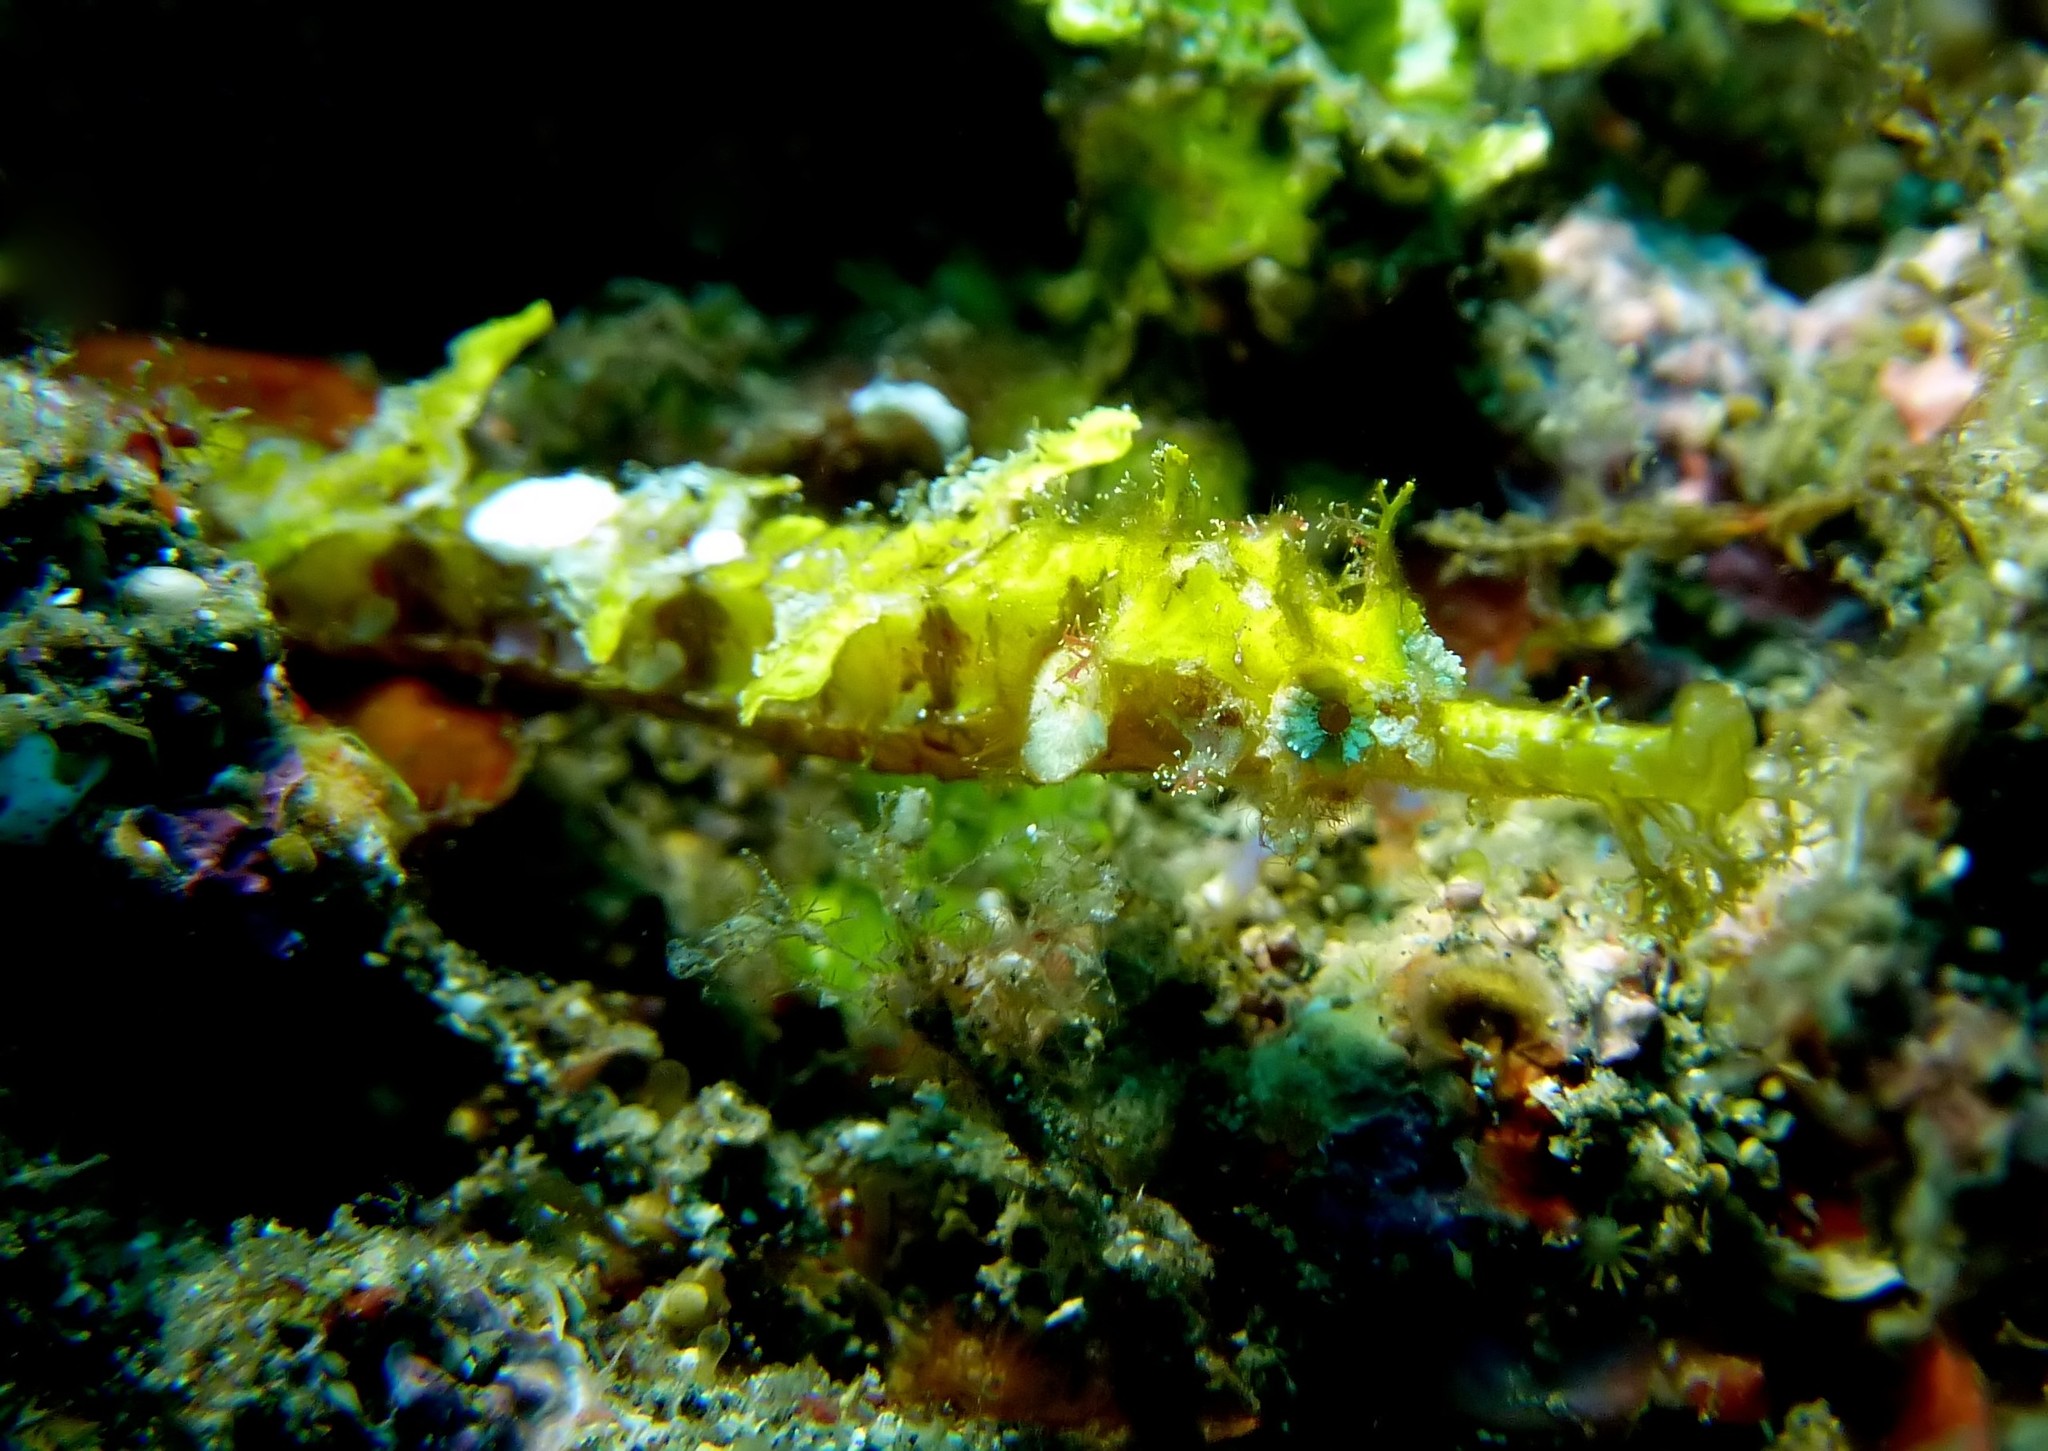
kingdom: Animalia
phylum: Chordata
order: Syngnathiformes
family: Syngnathidae
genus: Halicampus
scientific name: Halicampus macrorhynchus
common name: Ornate pipefish
